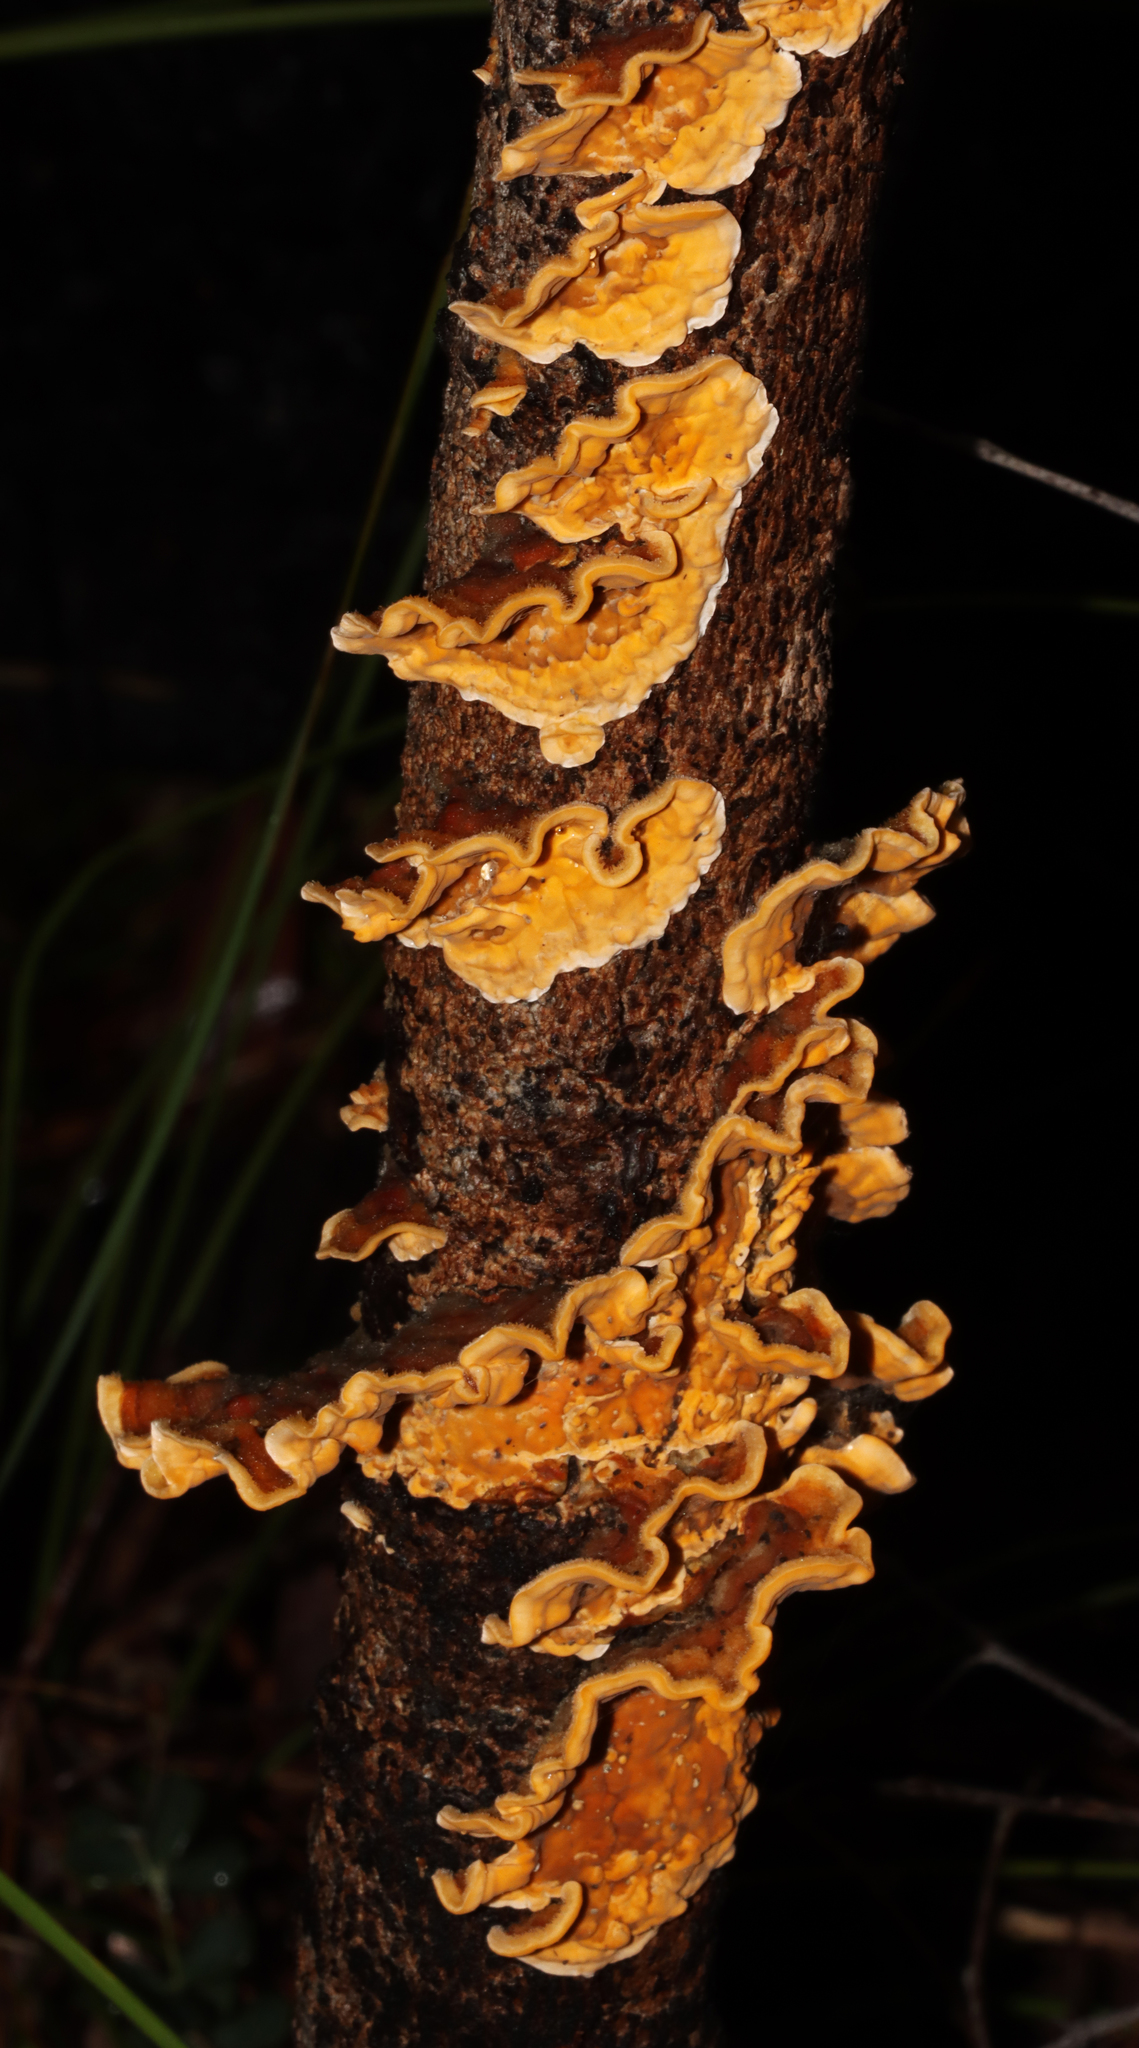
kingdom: Fungi
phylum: Basidiomycota
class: Agaricomycetes
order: Russulales
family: Stereaceae
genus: Stereum
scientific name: Stereum hirsutum
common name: Hairy curtain crust
